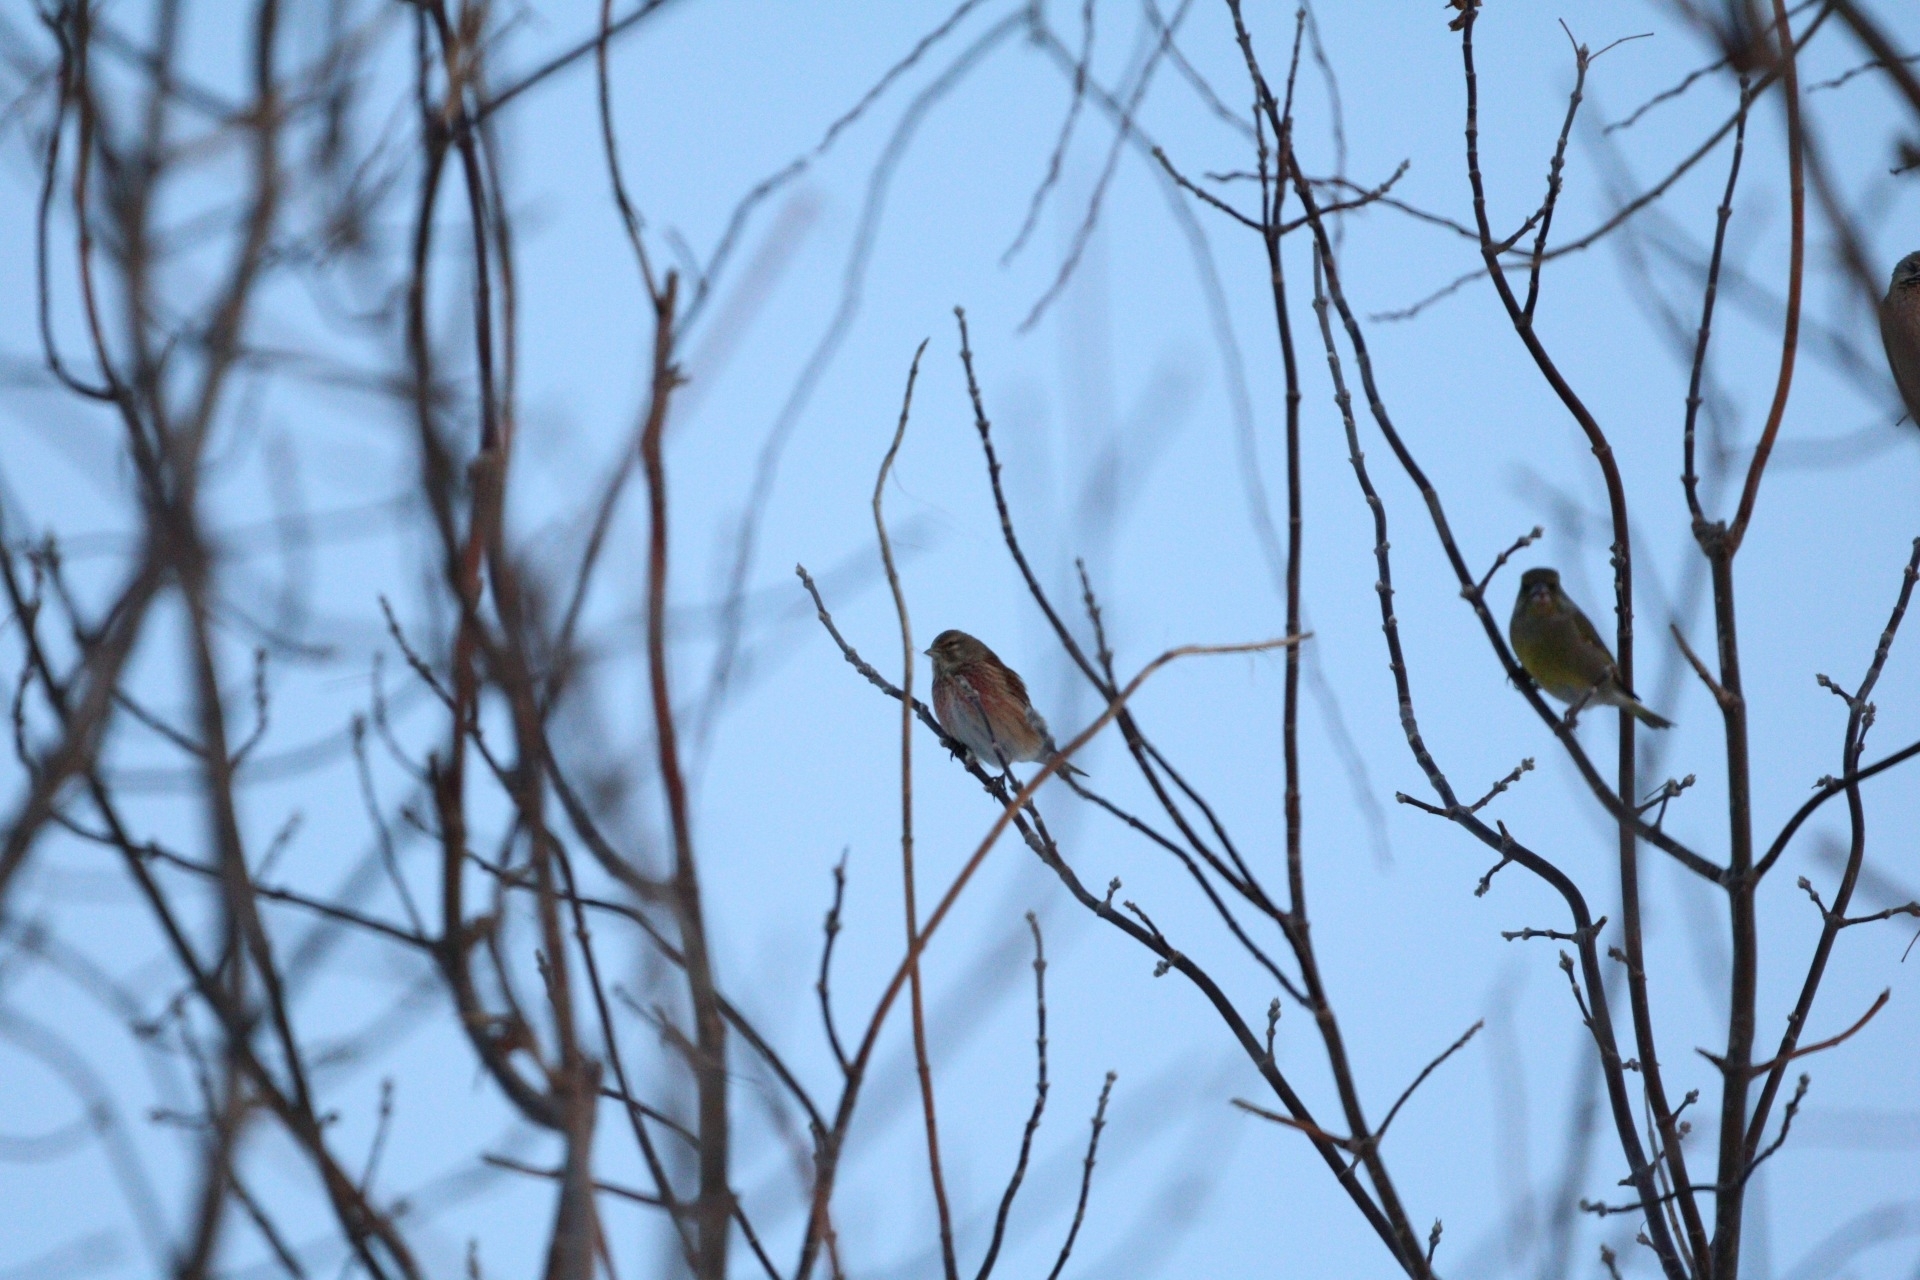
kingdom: Animalia
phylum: Chordata
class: Aves
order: Passeriformes
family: Fringillidae
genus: Linaria
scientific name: Linaria cannabina
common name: Common linnet
